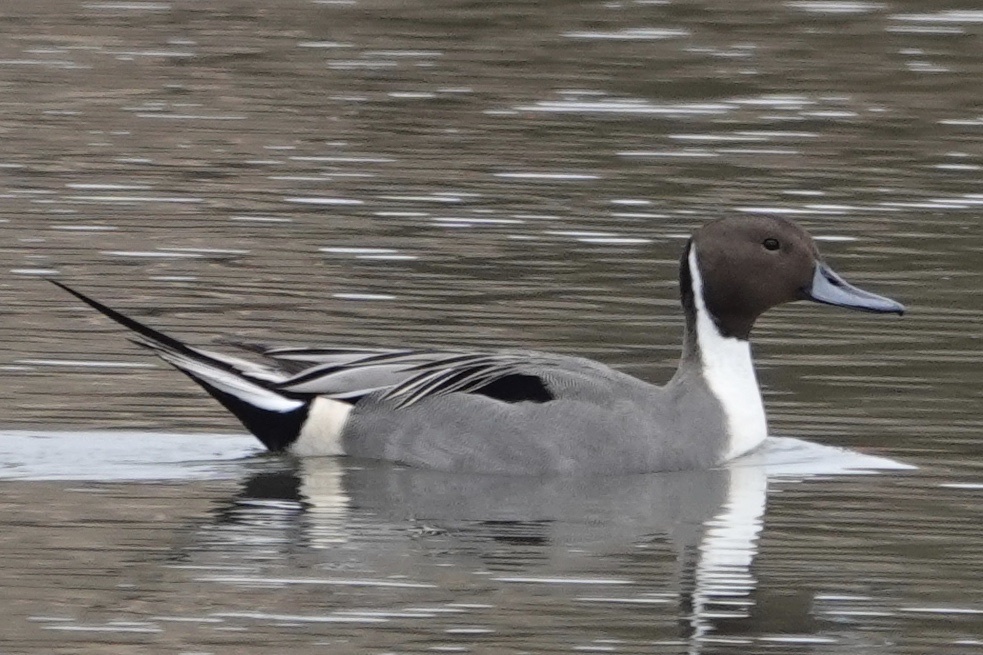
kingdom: Animalia
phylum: Chordata
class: Aves
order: Anseriformes
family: Anatidae
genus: Anas
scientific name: Anas acuta
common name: Northern pintail
